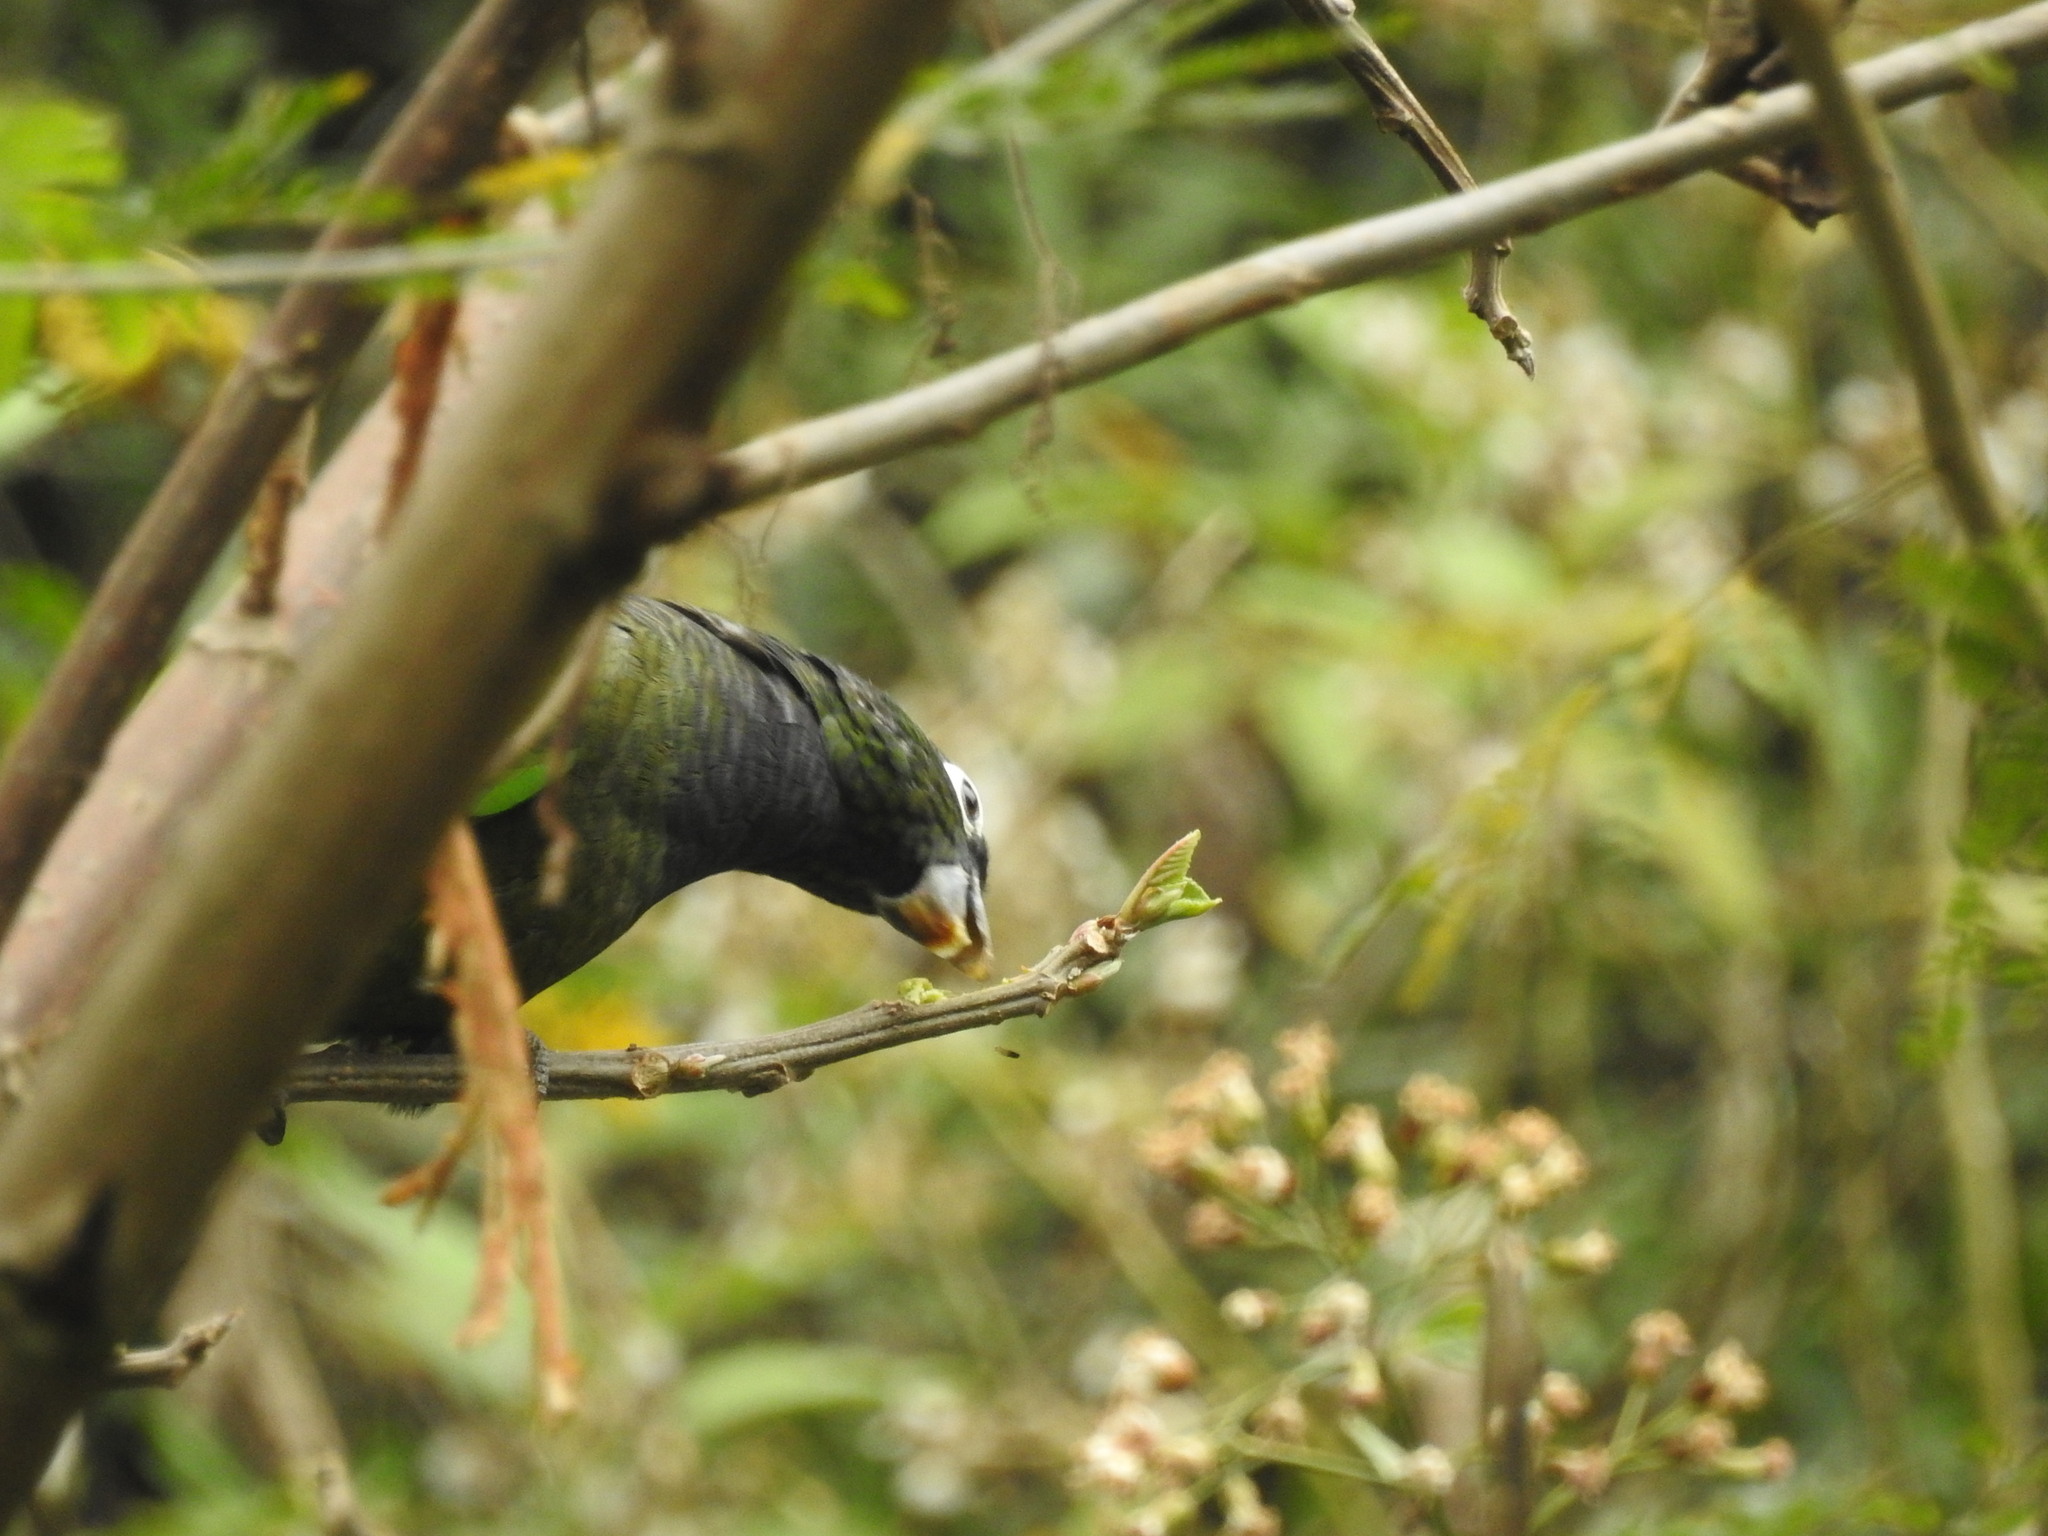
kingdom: Animalia
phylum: Chordata
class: Aves
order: Psittaciformes
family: Psittacidae
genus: Pionus
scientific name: Pionus maximiliani
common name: Scaly-headed parrot
